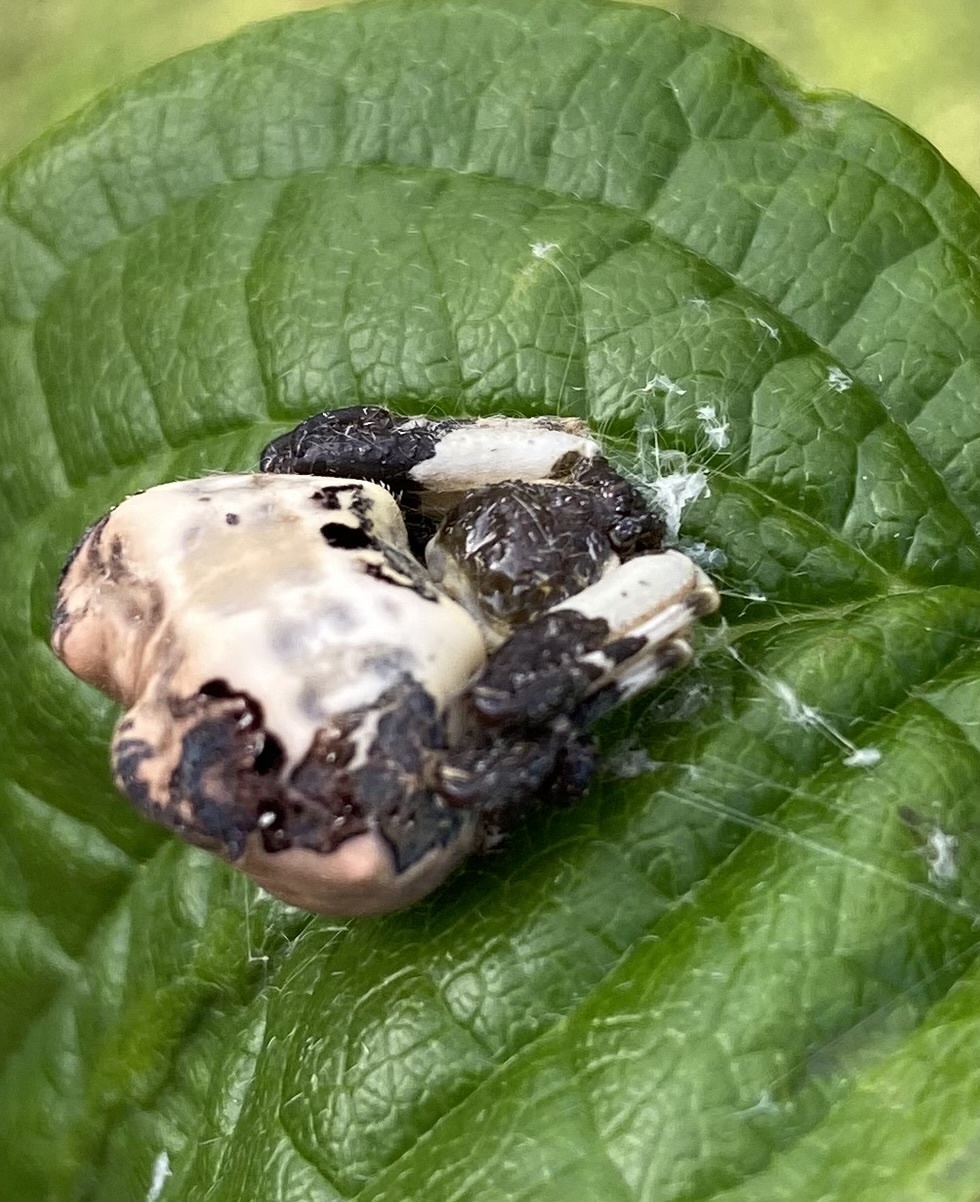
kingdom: Animalia
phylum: Arthropoda
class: Arachnida
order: Araneae
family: Araneidae
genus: Celaenia
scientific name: Celaenia excavata
